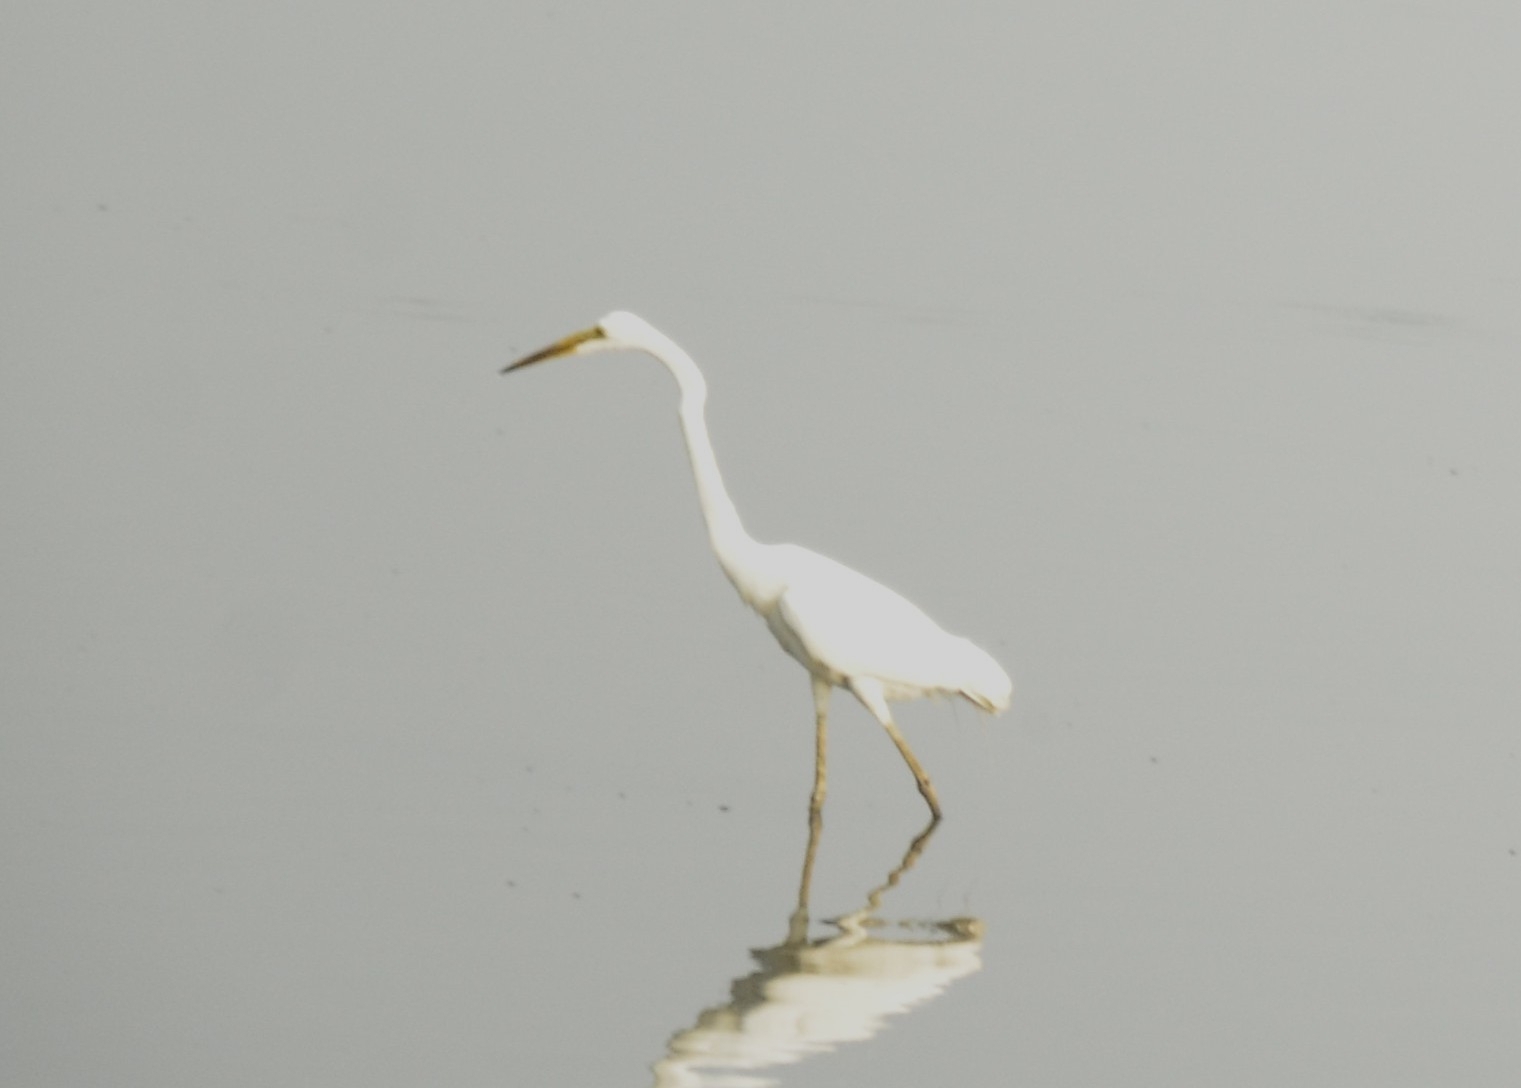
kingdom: Animalia
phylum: Chordata
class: Aves
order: Pelecaniformes
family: Ardeidae
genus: Ardea
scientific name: Ardea alba
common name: Great egret
